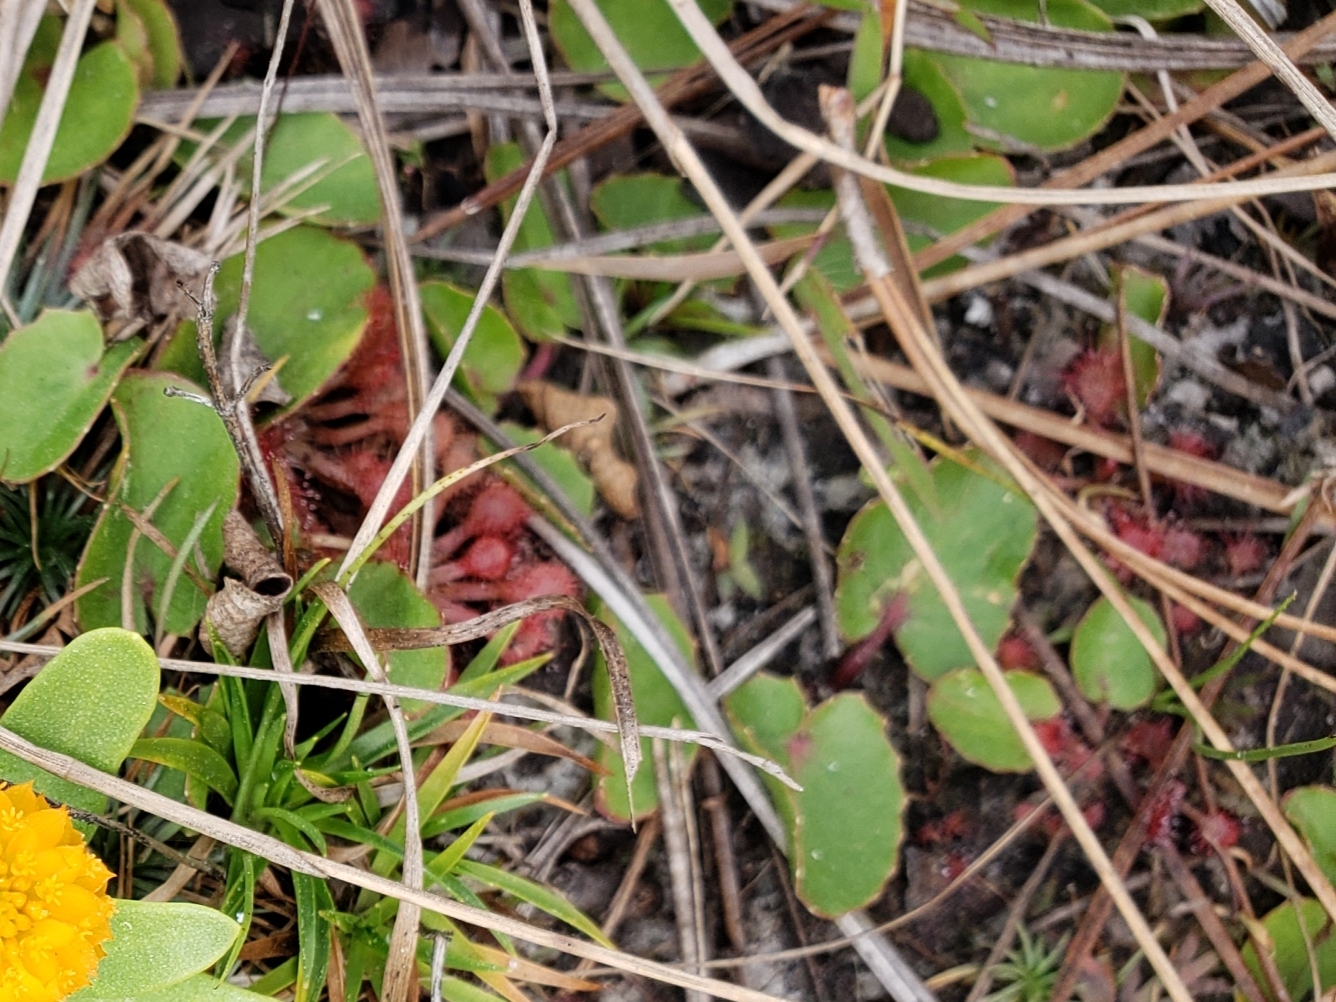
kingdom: Plantae
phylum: Tracheophyta
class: Magnoliopsida
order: Apiales
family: Apiaceae
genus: Centella
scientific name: Centella erecta
